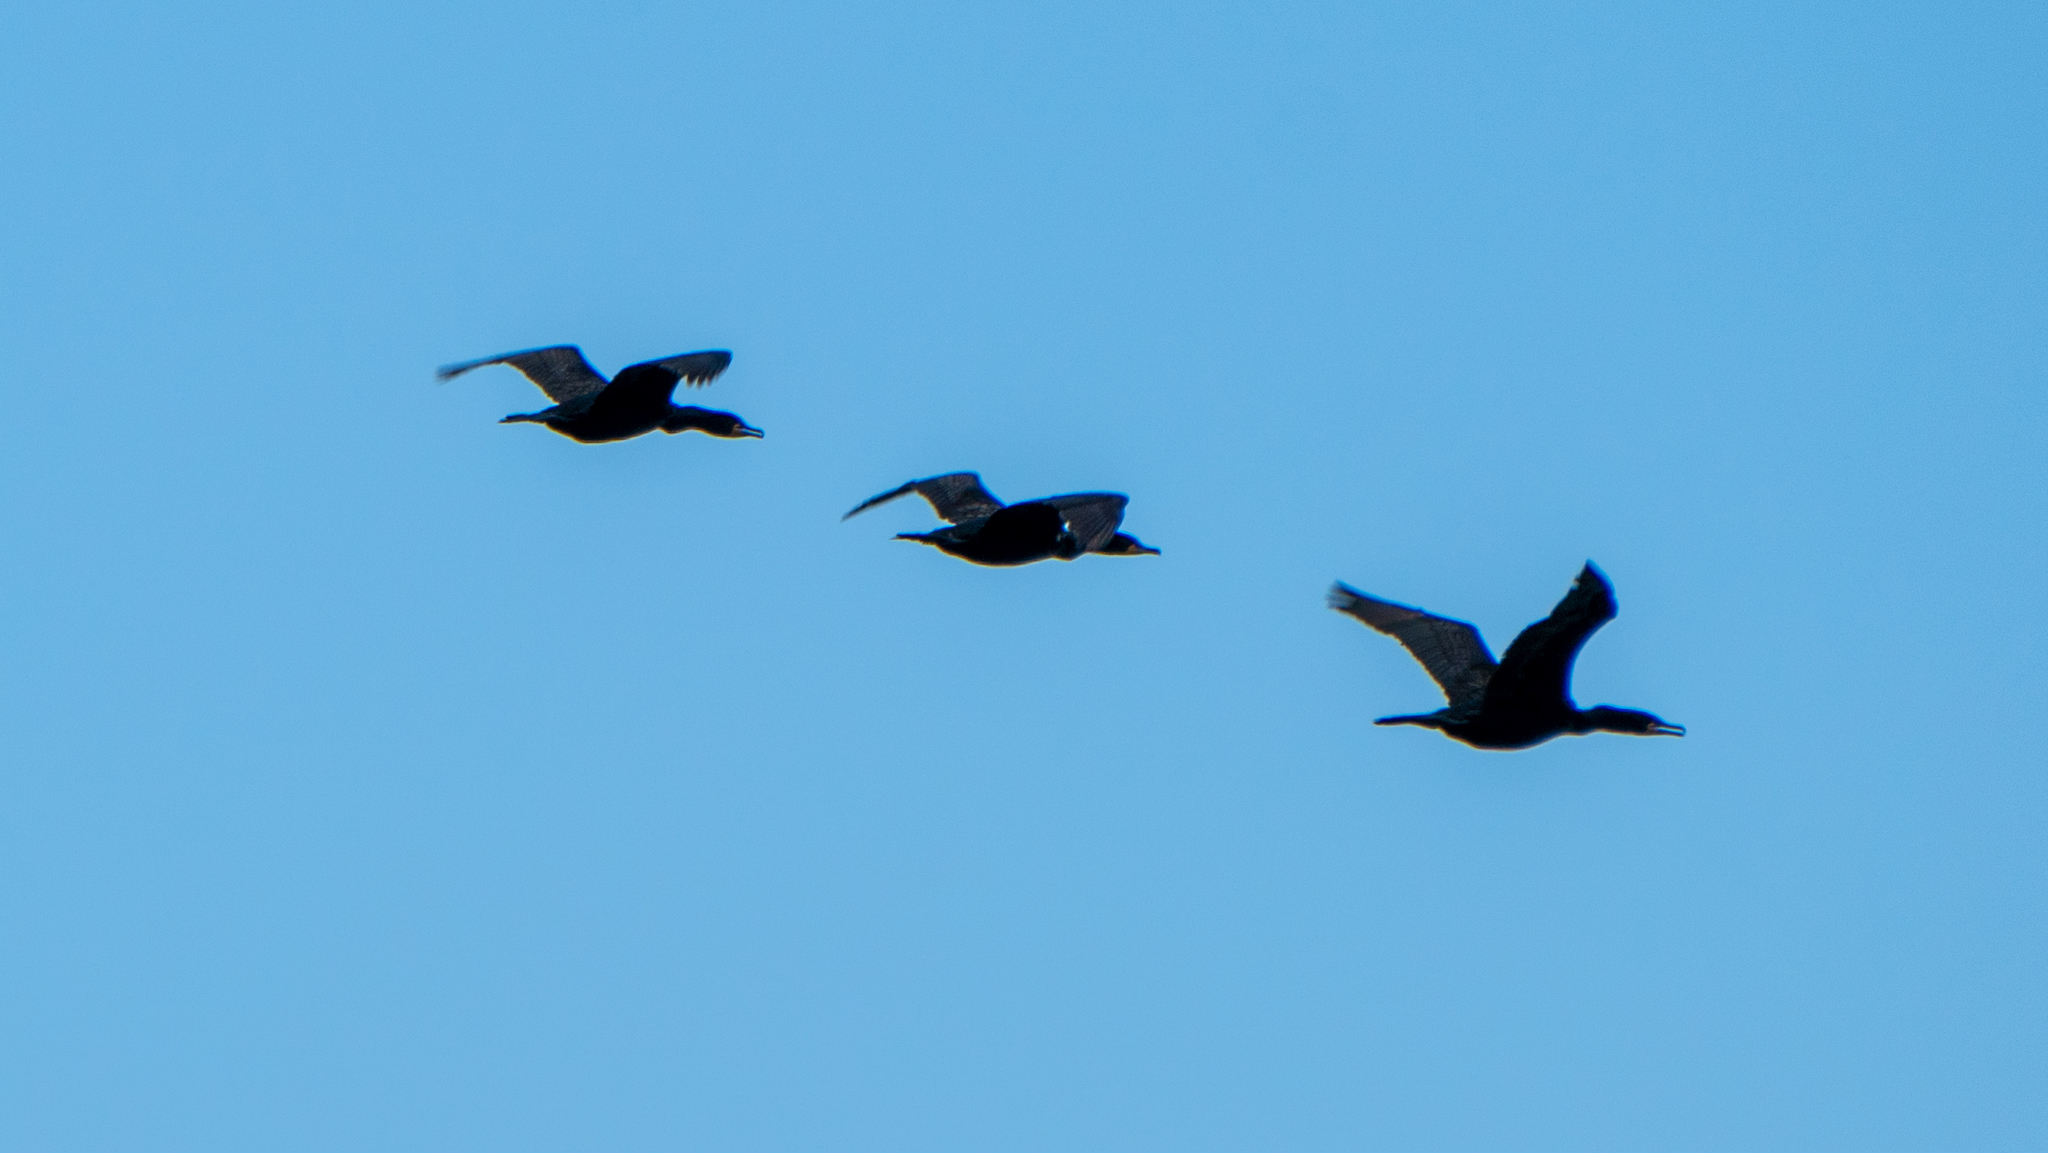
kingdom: Animalia
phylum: Chordata
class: Aves
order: Suliformes
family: Phalacrocoracidae
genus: Phalacrocorax
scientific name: Phalacrocorax auritus
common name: Double-crested cormorant
